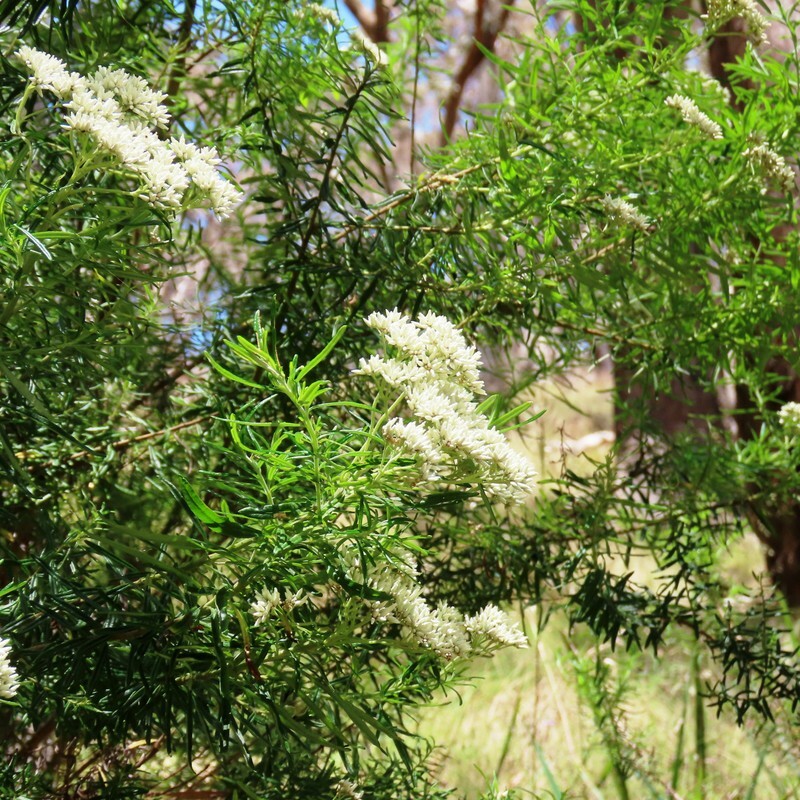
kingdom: Plantae
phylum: Tracheophyta
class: Magnoliopsida
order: Asterales
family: Asteraceae
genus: Cassinia
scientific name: Cassinia aculeata
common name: Australian tauhinu
